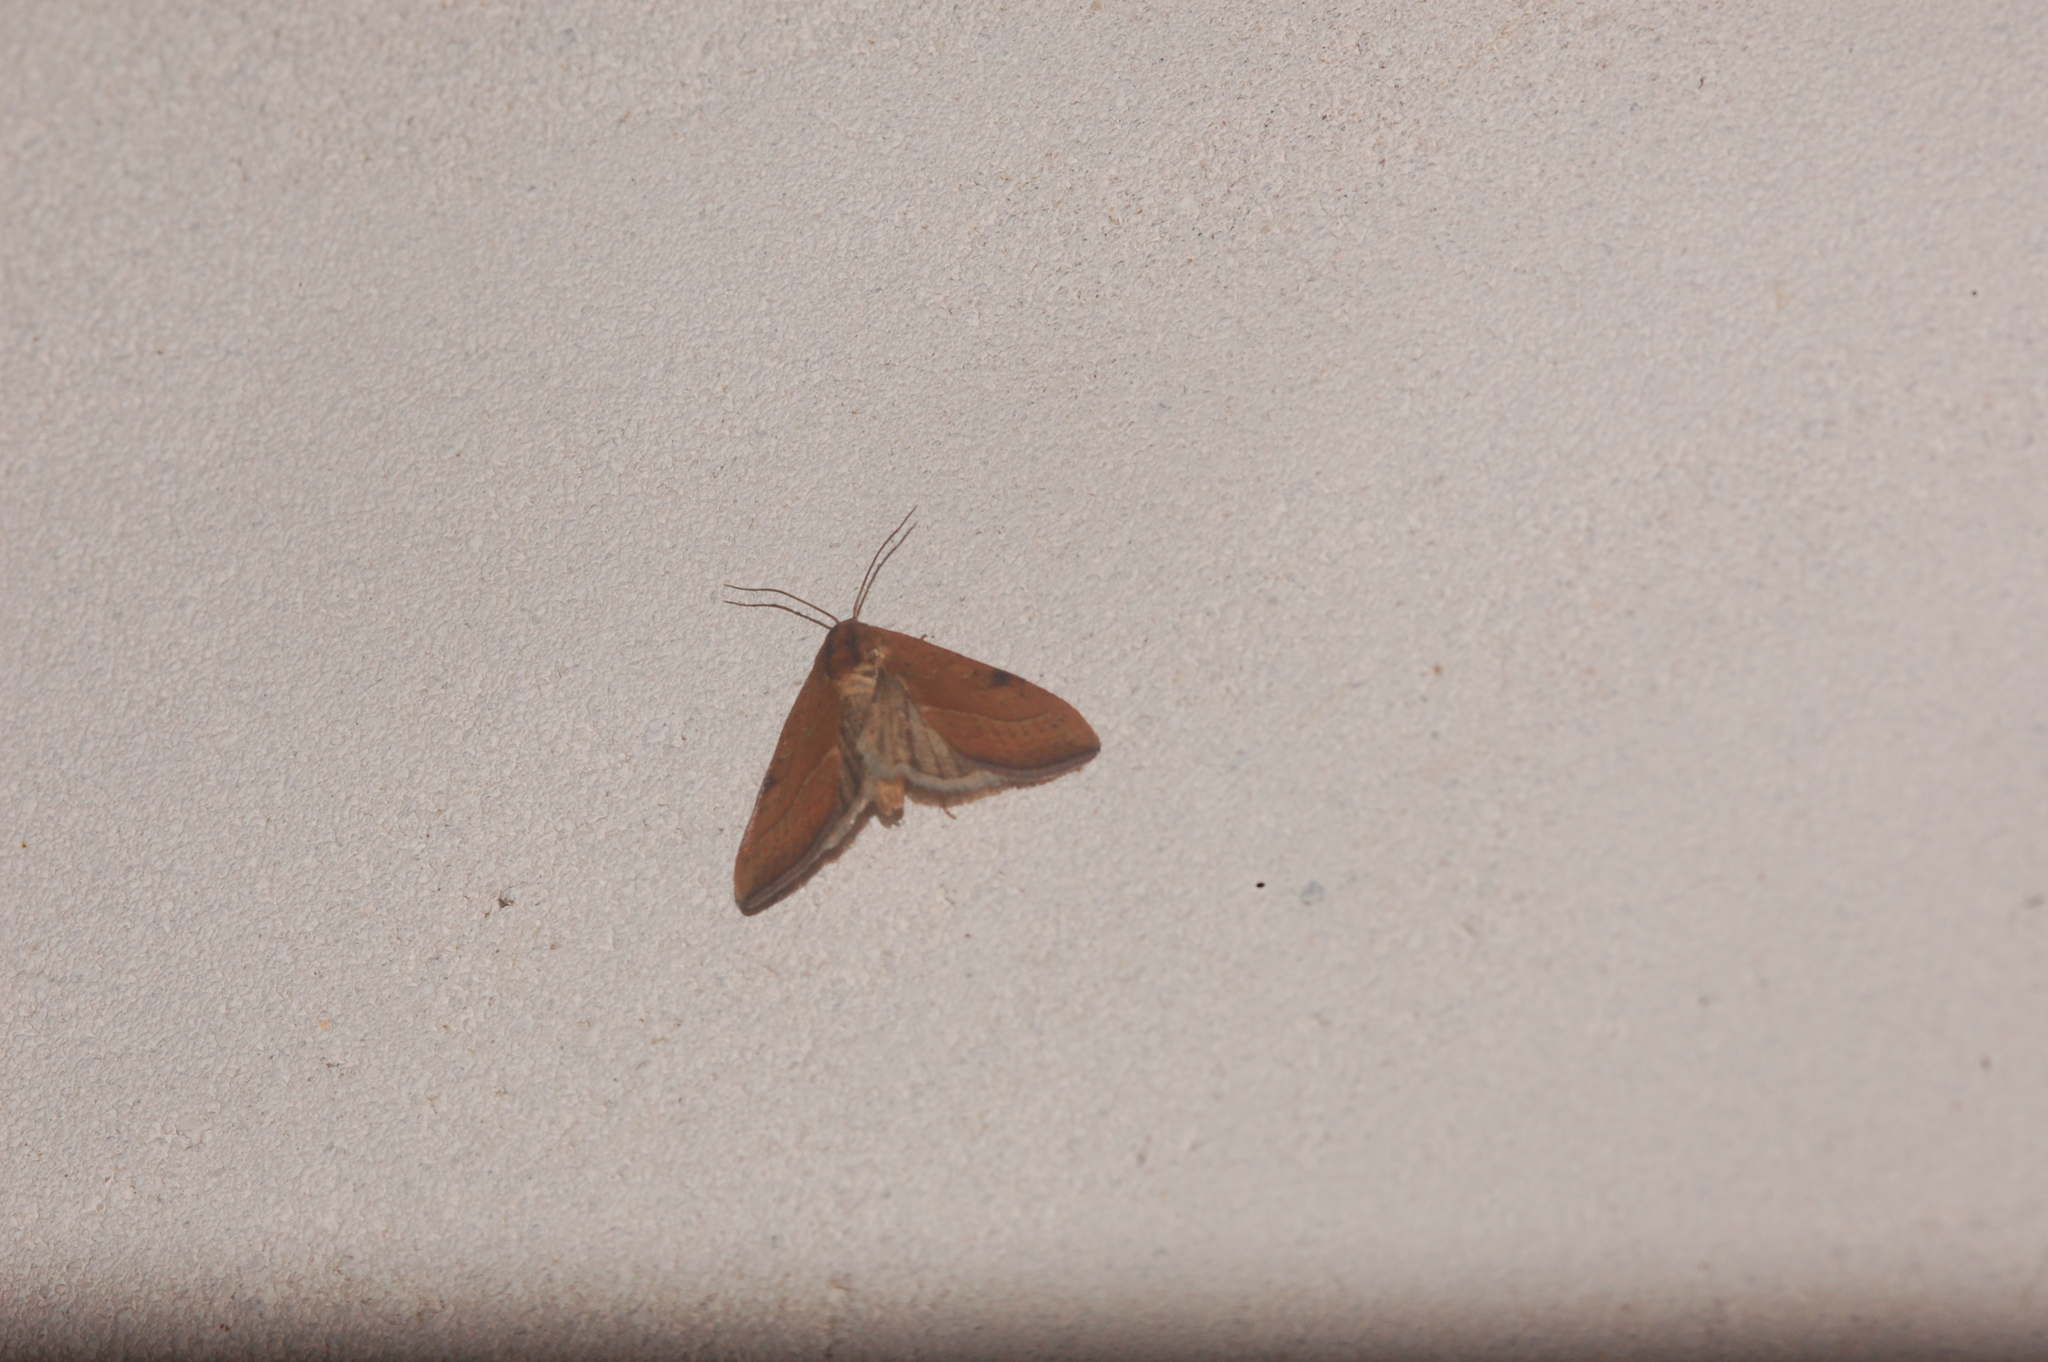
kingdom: Animalia
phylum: Arthropoda
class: Insecta
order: Lepidoptera
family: Noctuidae
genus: Galgula
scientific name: Galgula partita
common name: Wedgeling
